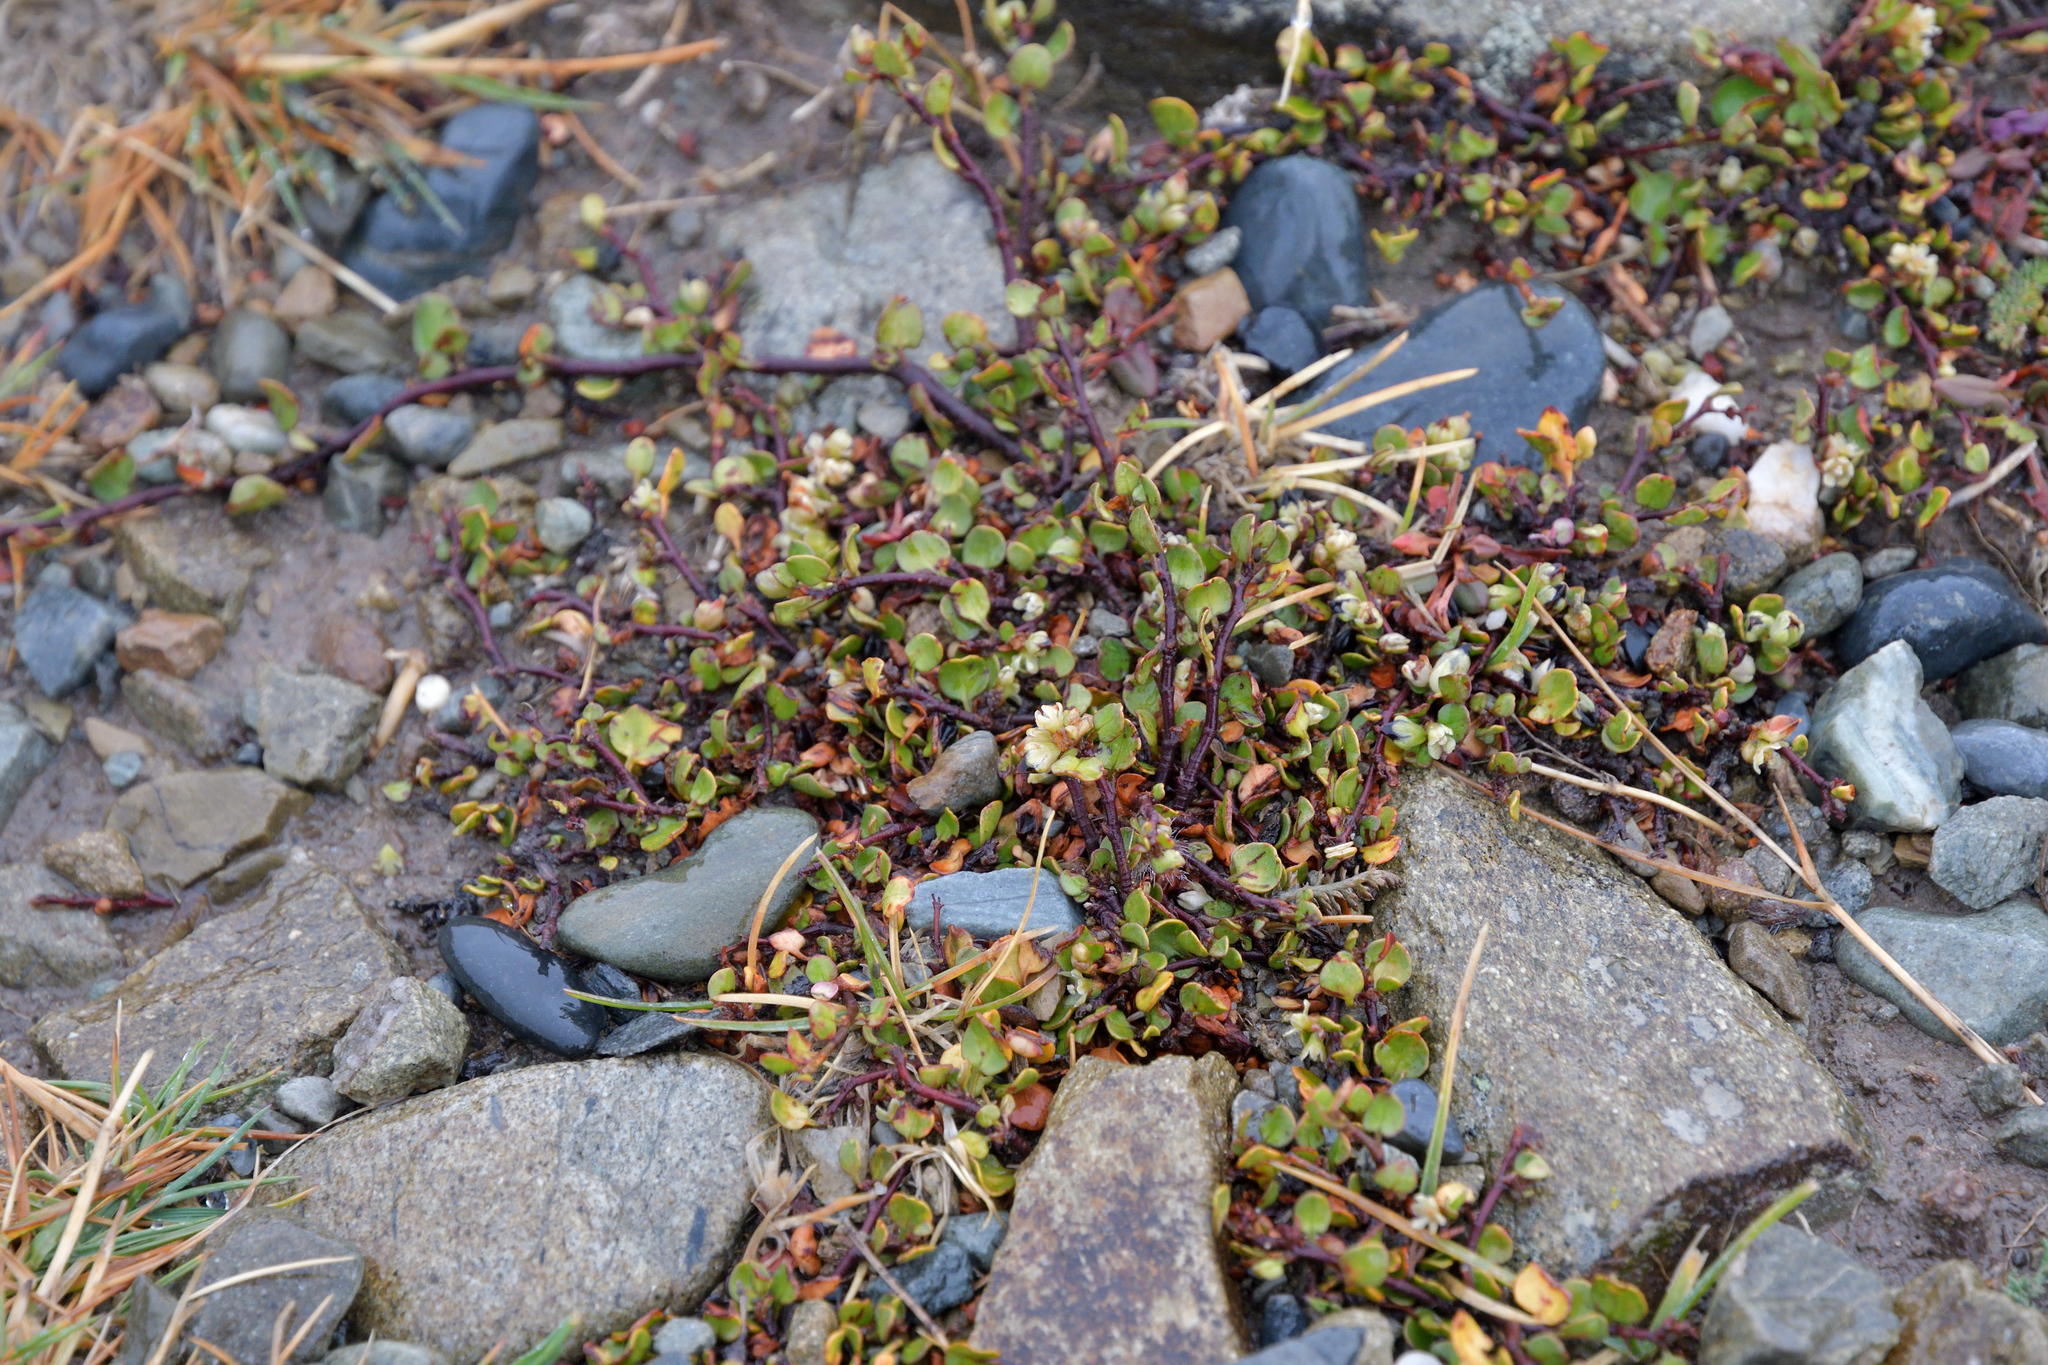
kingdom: Plantae
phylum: Tracheophyta
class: Magnoliopsida
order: Caryophyllales
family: Polygonaceae
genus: Muehlenbeckia
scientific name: Muehlenbeckia axillaris
